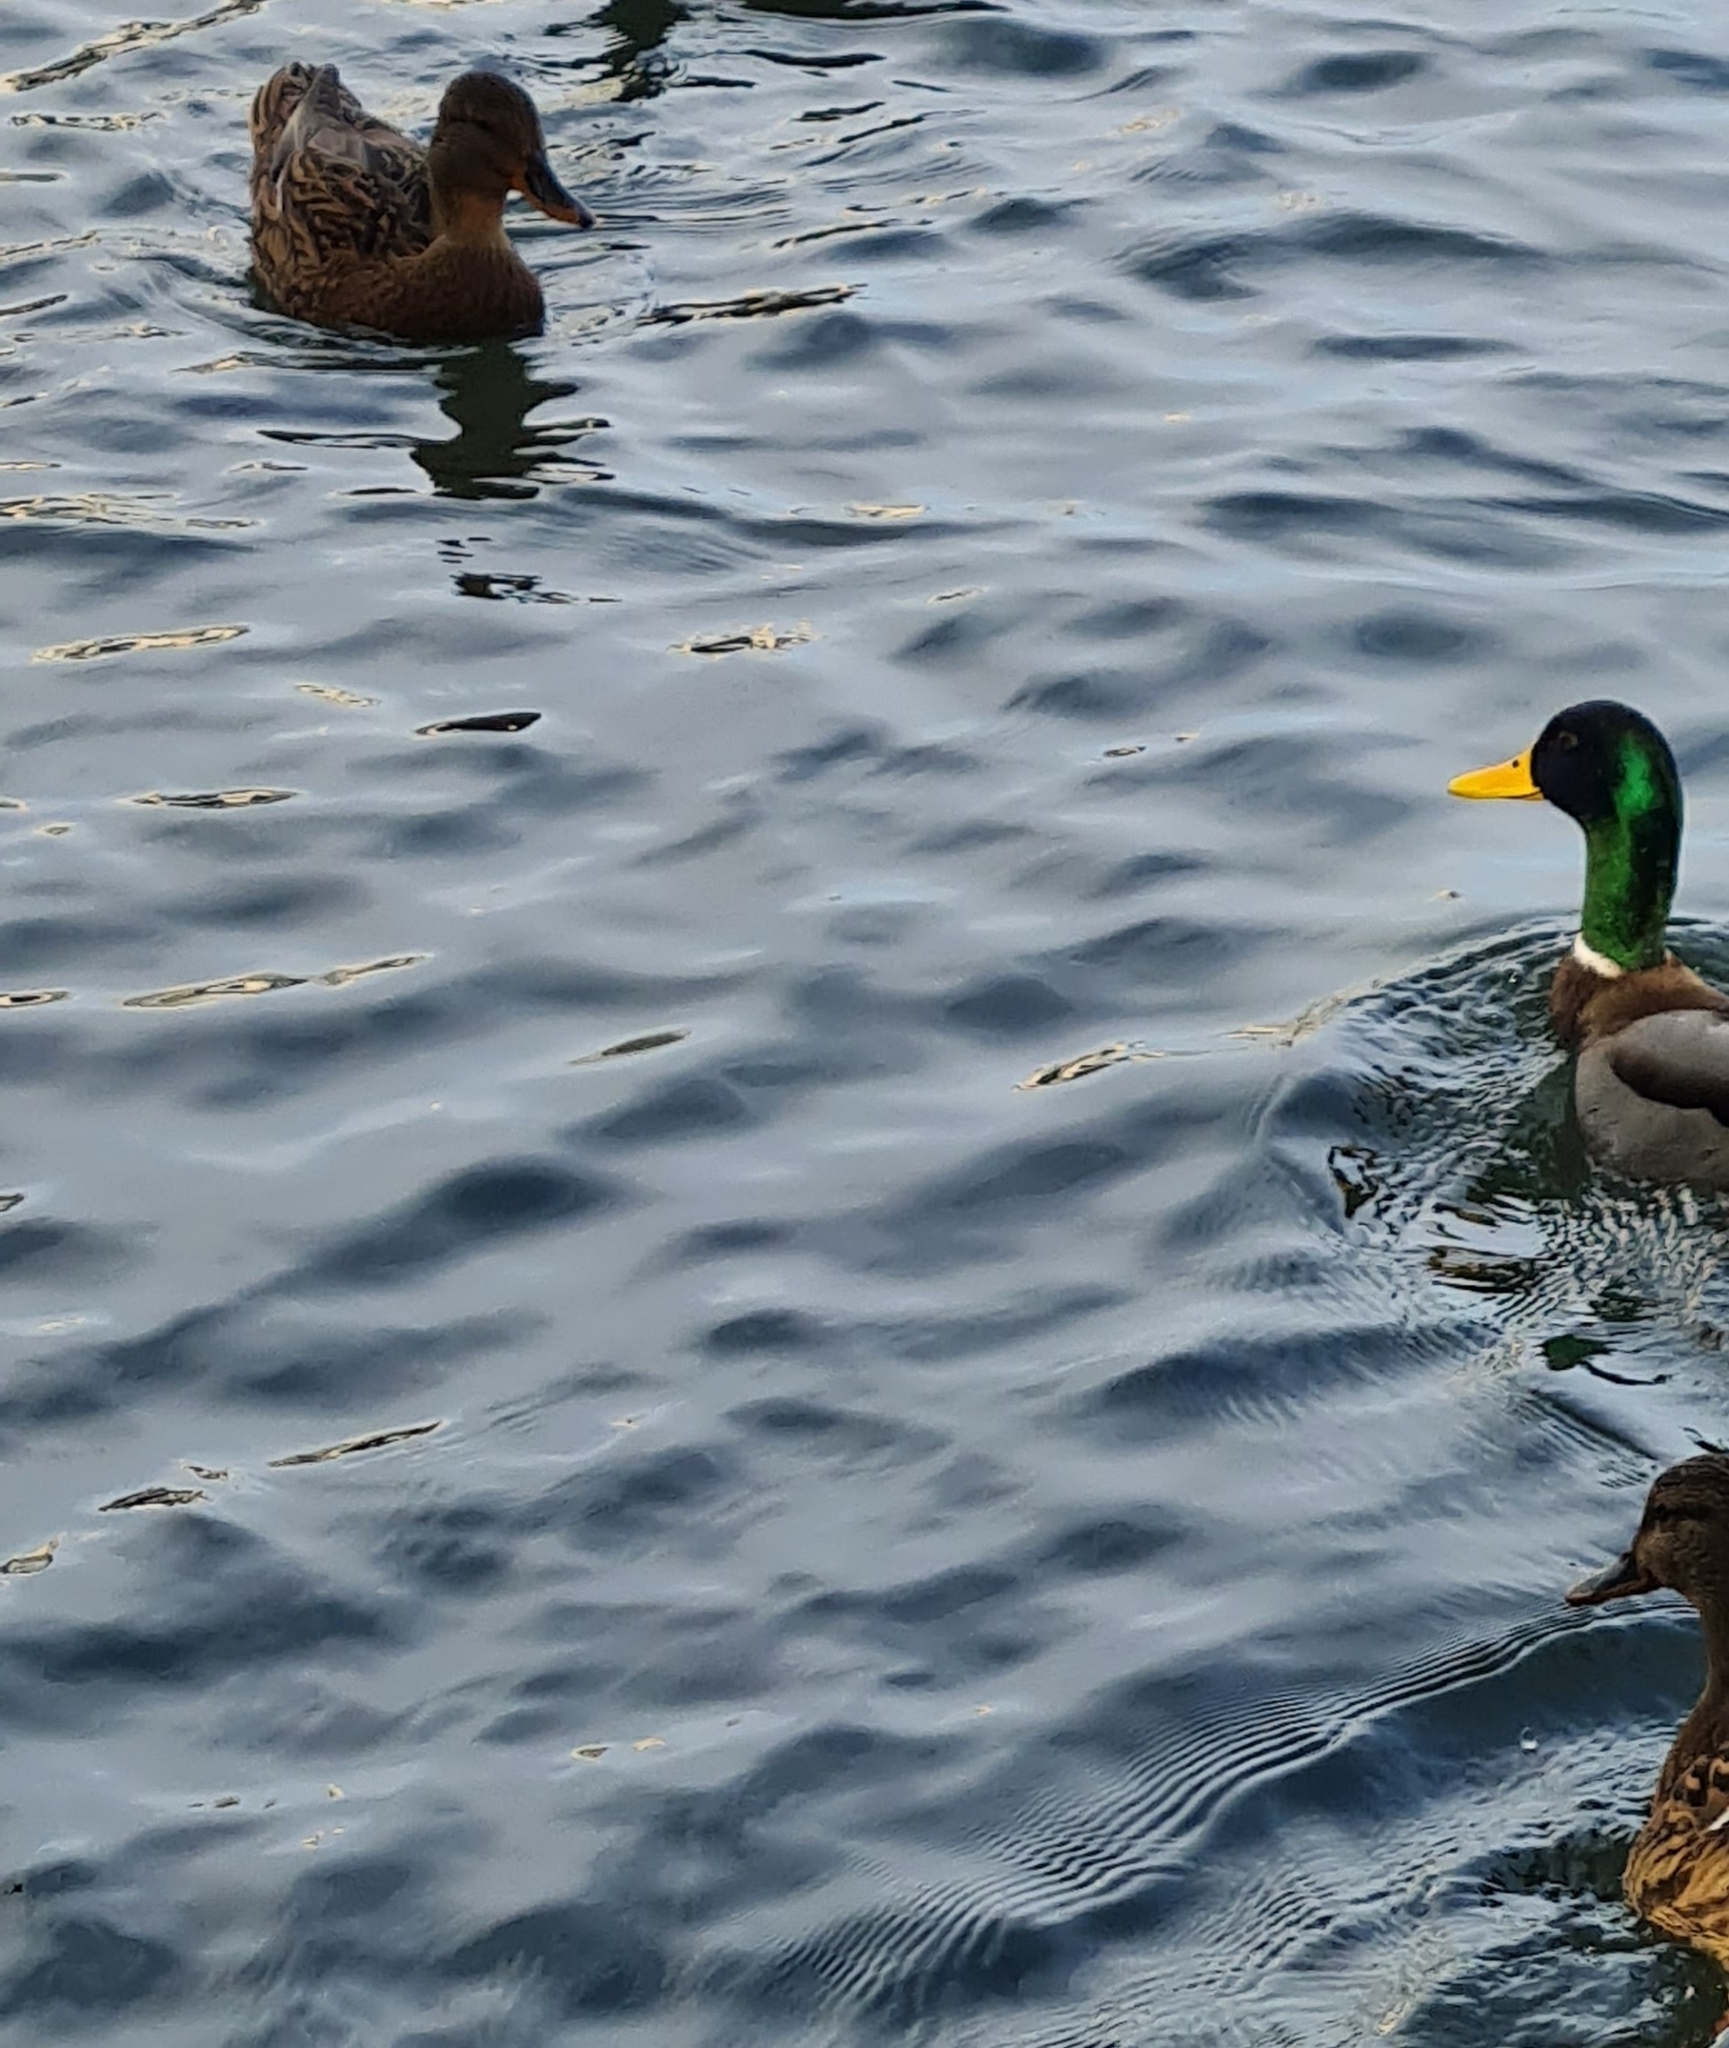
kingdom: Animalia
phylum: Chordata
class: Aves
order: Anseriformes
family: Anatidae
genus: Anas
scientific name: Anas platyrhynchos
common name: Mallard
